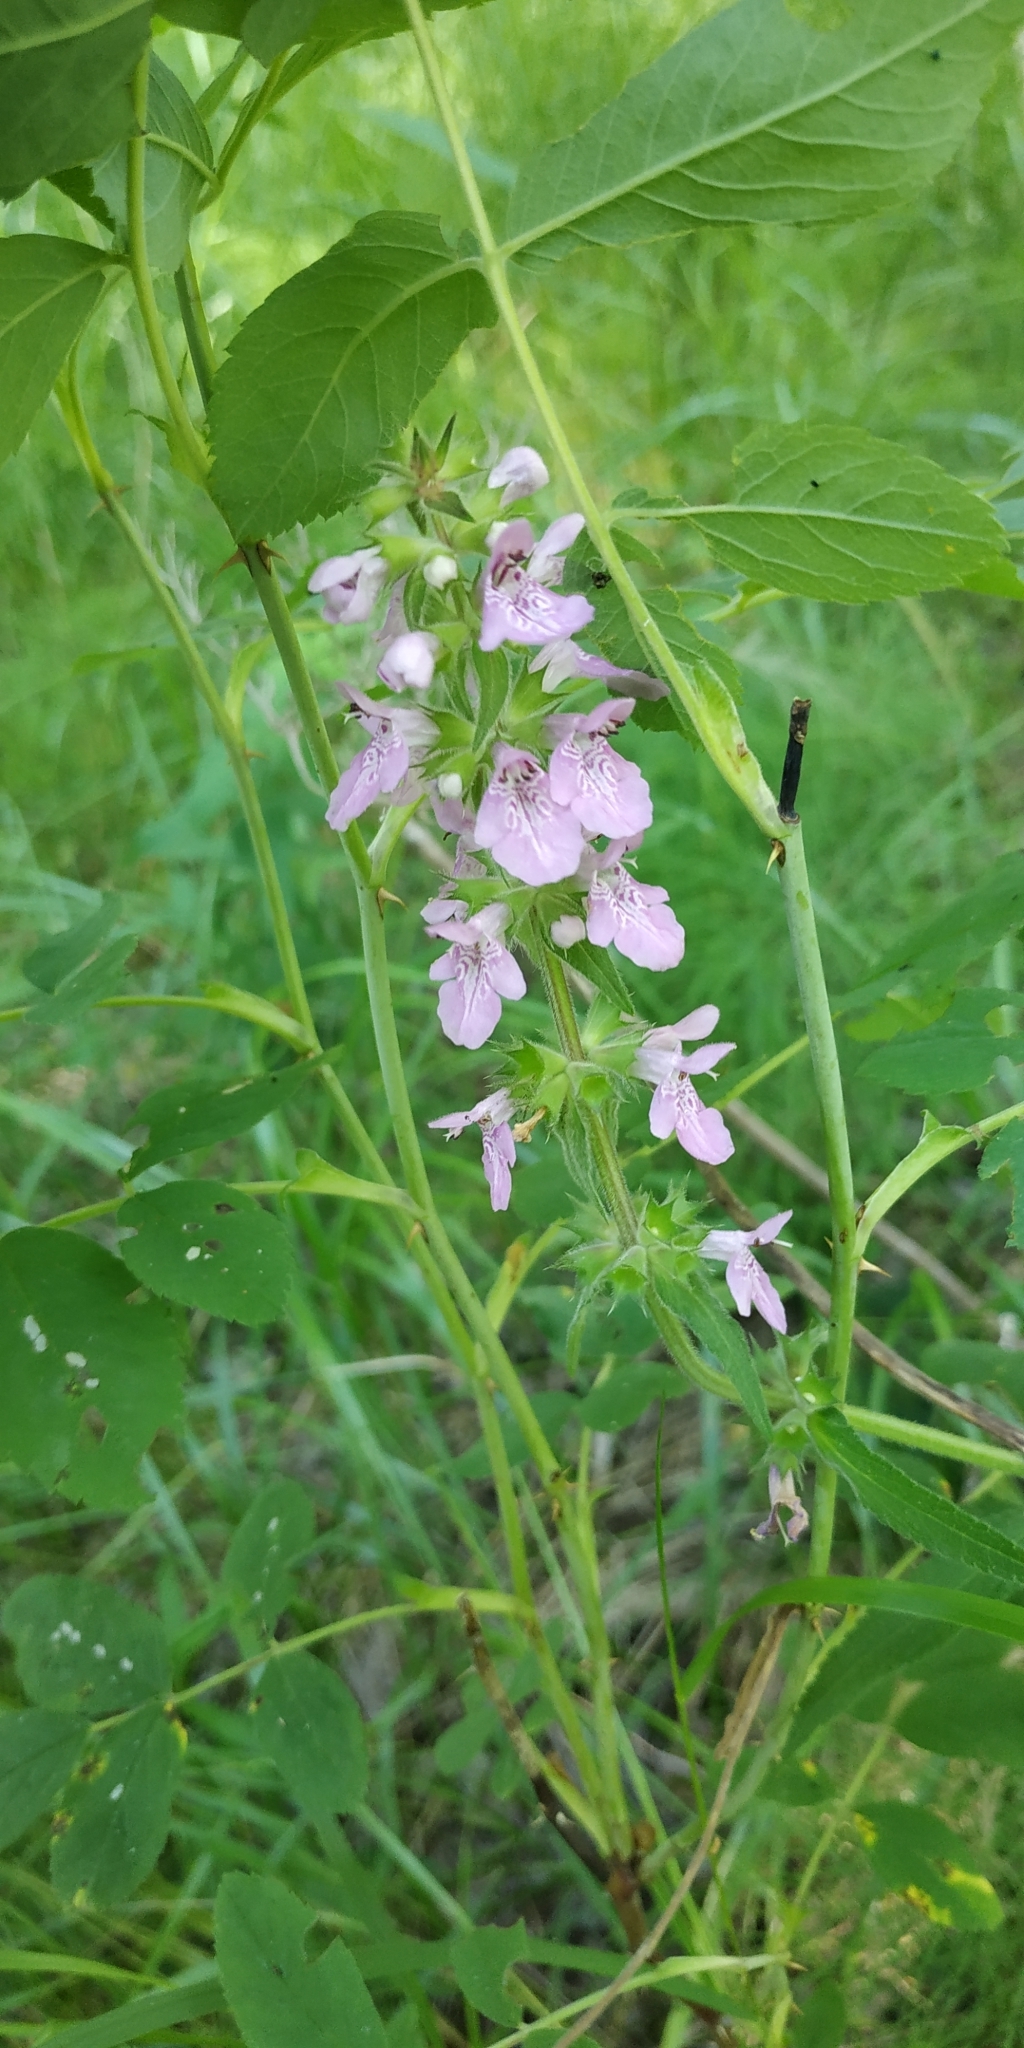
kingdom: Plantae
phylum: Tracheophyta
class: Magnoliopsida
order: Lamiales
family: Lamiaceae
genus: Stachys
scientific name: Stachys palustris
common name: Marsh woundwort
